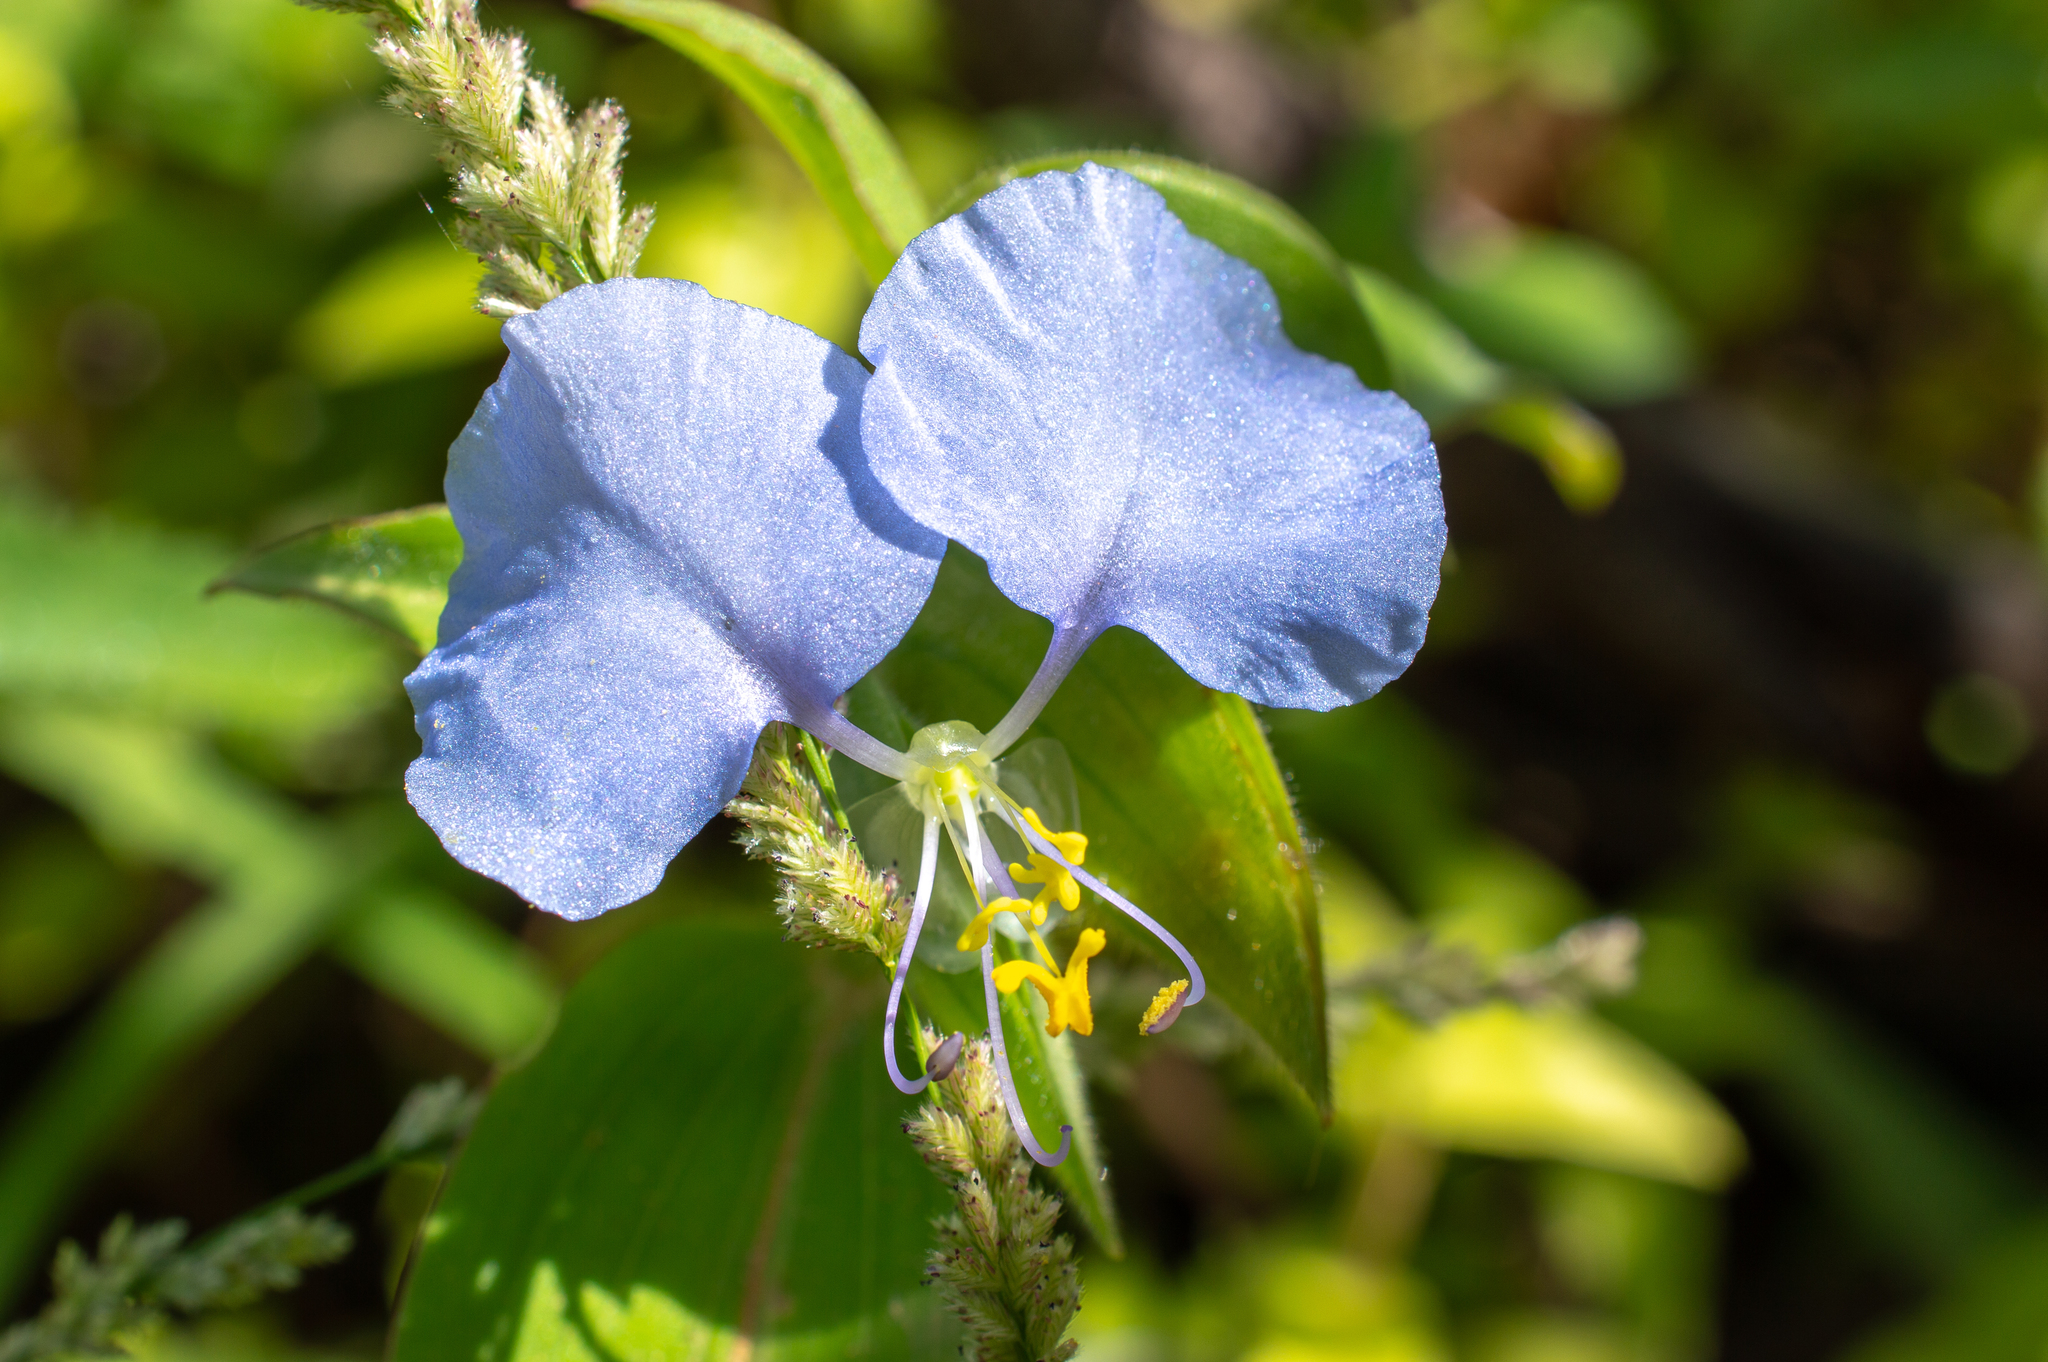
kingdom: Plantae
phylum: Tracheophyta
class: Liliopsida
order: Commelinales
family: Commelinaceae
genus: Commelina
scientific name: Commelina erecta
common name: Blousel blommetjie
